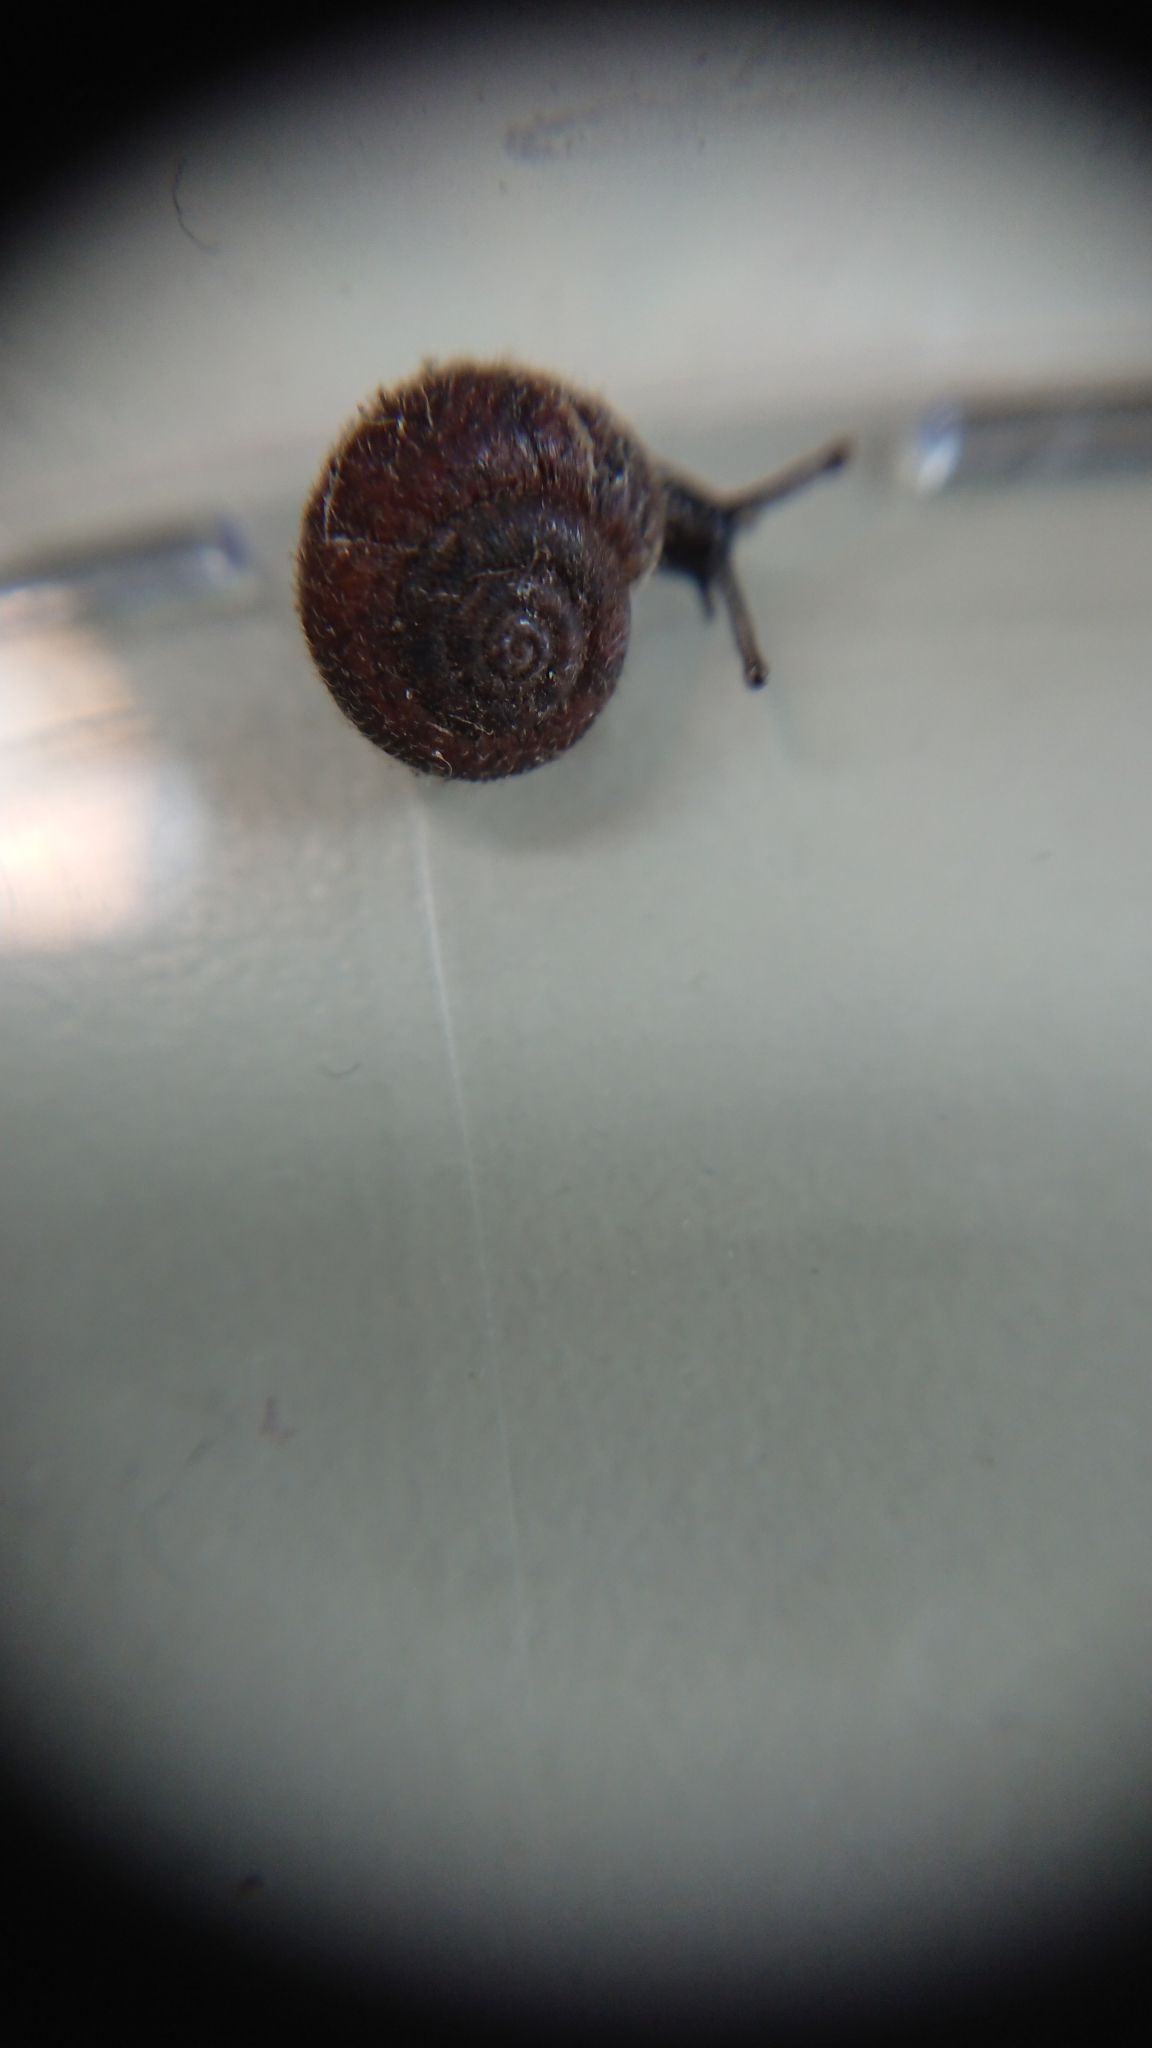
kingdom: Animalia
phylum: Mollusca
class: Gastropoda
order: Stylommatophora
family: Hygromiidae
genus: Trochulus
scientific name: Trochulus hispidus
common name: Hairy snail
